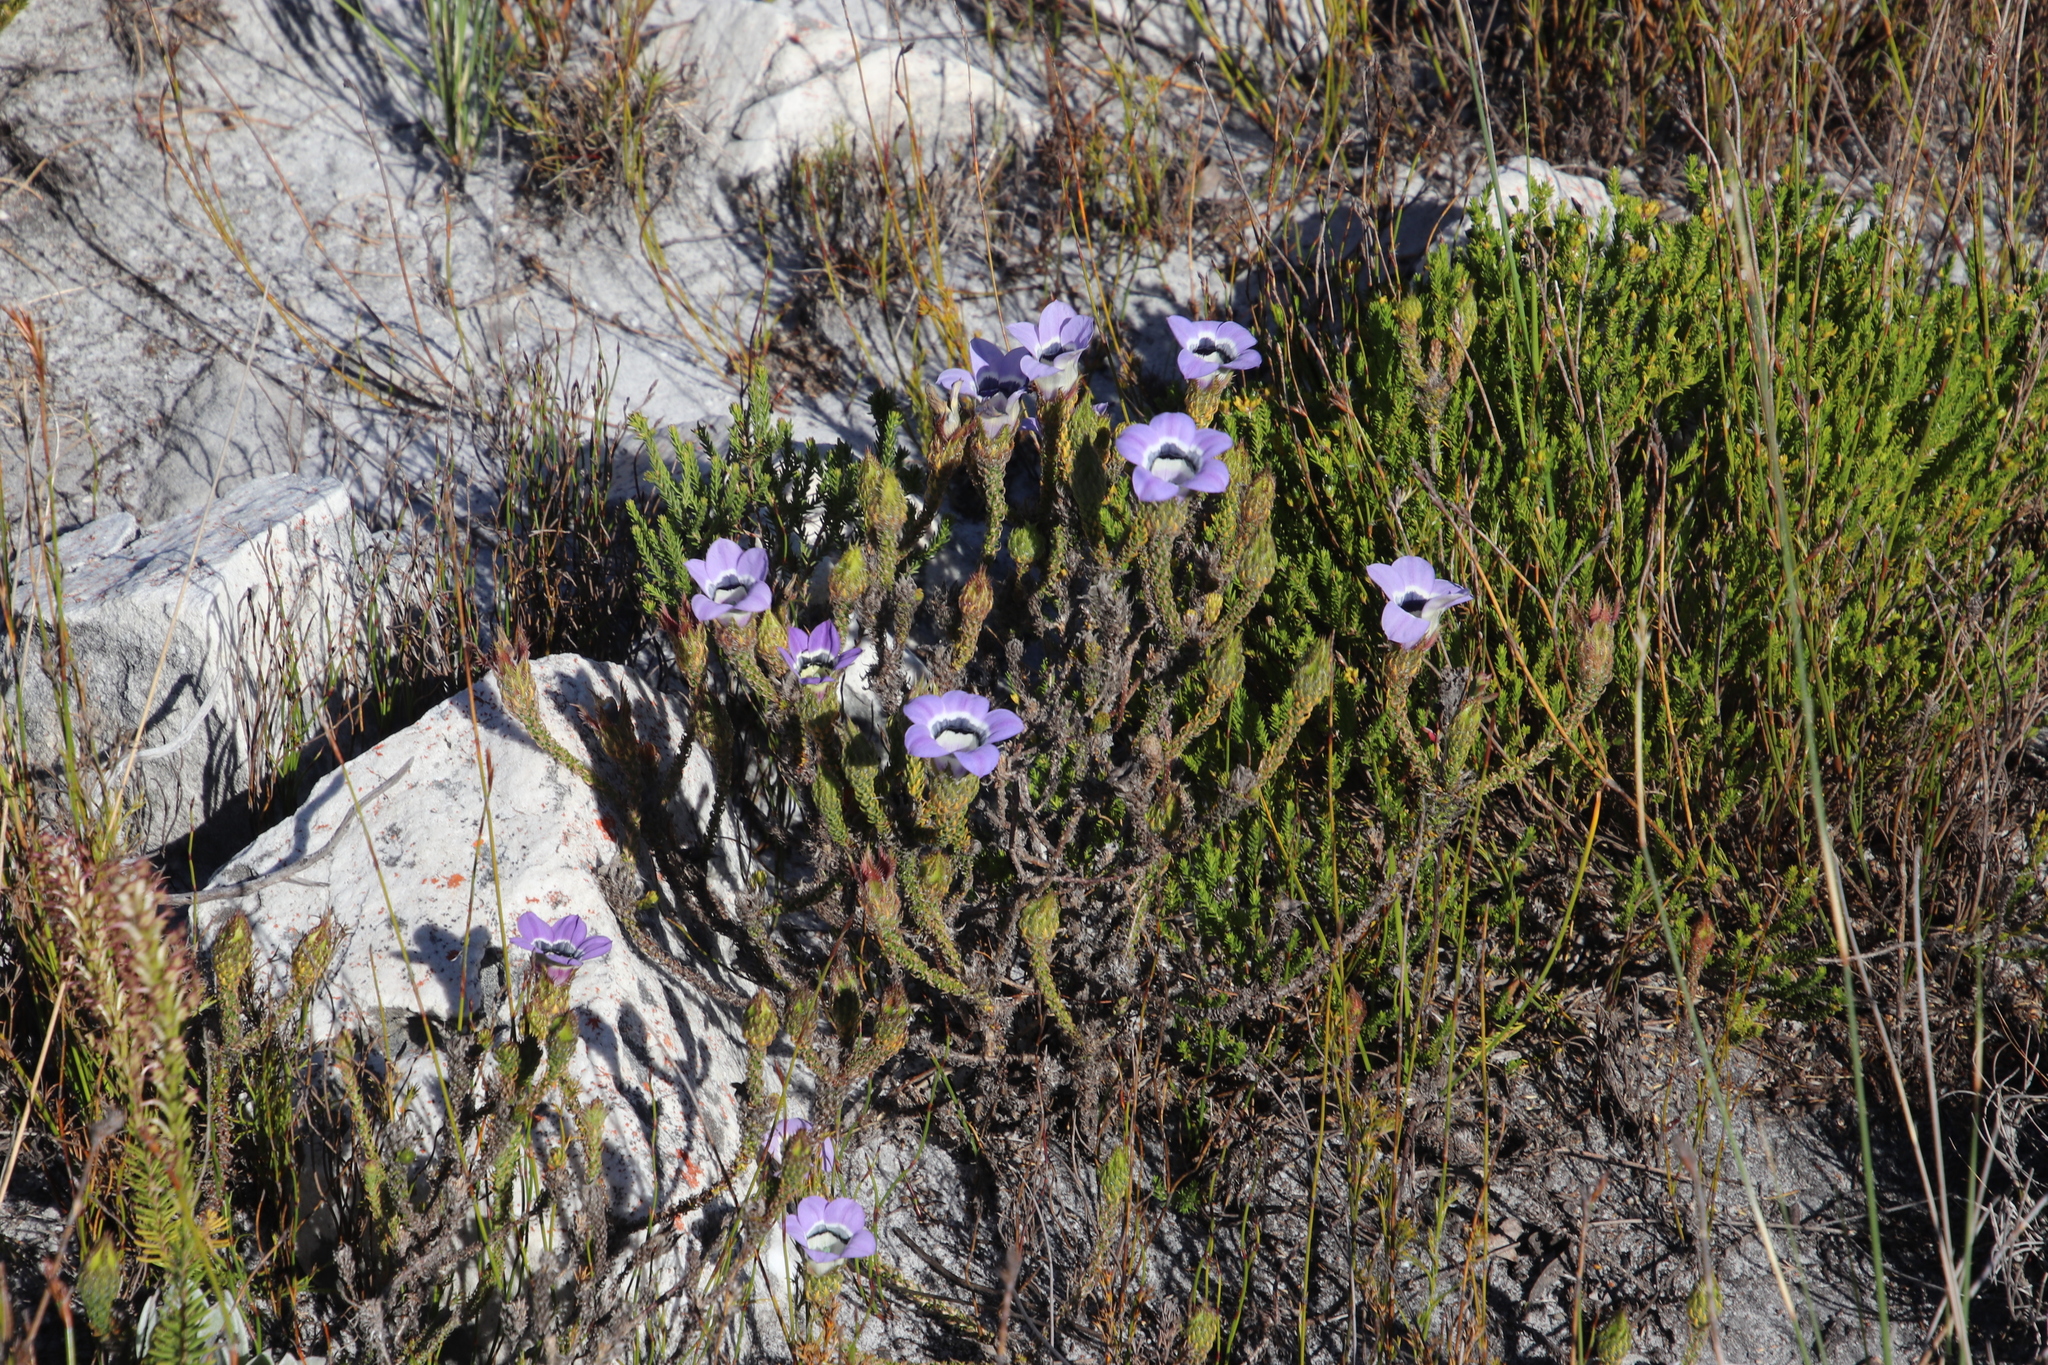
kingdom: Plantae
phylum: Tracheophyta
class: Magnoliopsida
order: Asterales
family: Campanulaceae
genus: Roella
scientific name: Roella ciliata
